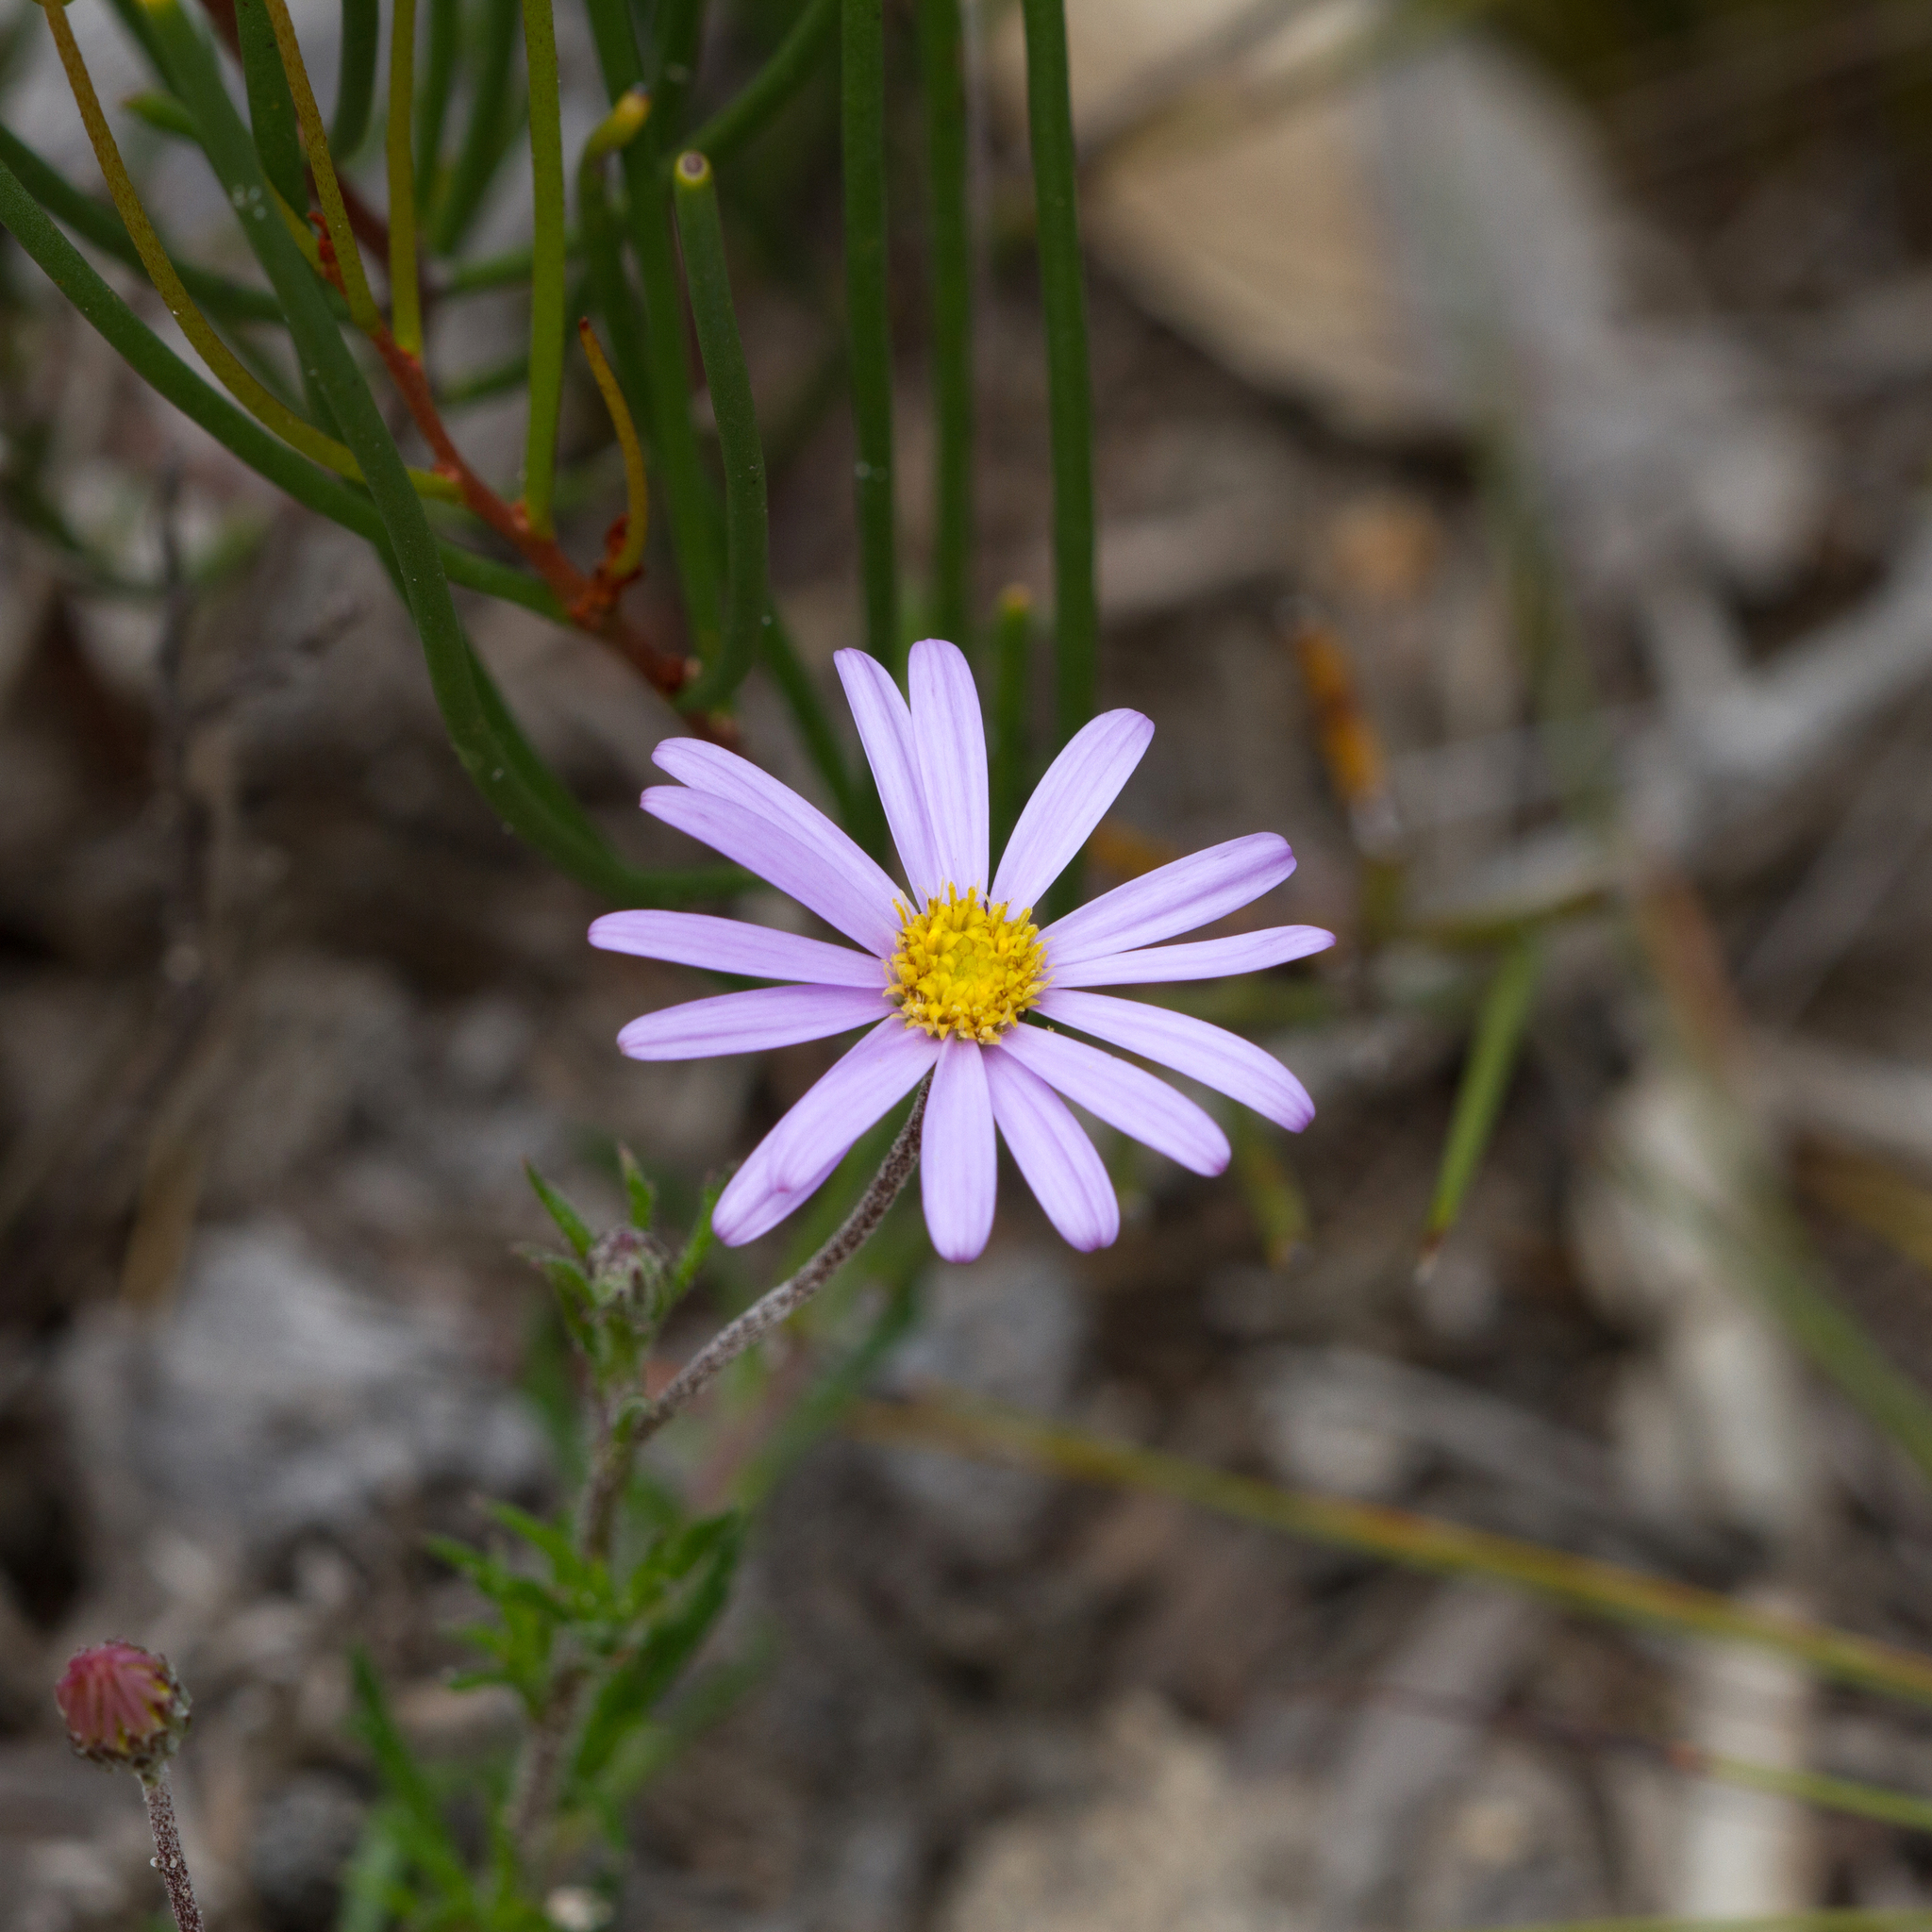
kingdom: Plantae
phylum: Tracheophyta
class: Magnoliopsida
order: Asterales
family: Asteraceae
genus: Olearia
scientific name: Olearia ciliata
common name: Fringed daisybush
